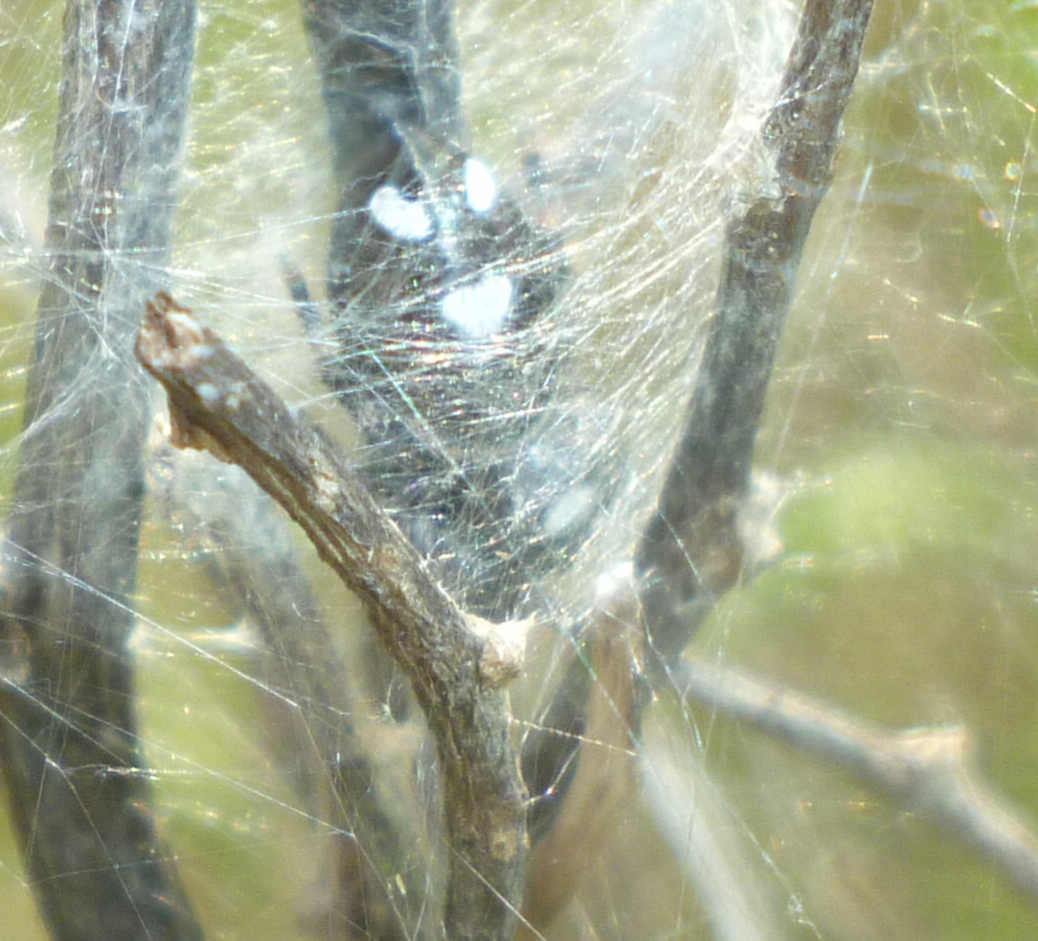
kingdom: Animalia
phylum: Arthropoda
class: Arachnida
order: Araneae
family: Salticidae
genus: Phidippus
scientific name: Phidippus regius
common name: Regal jumper
